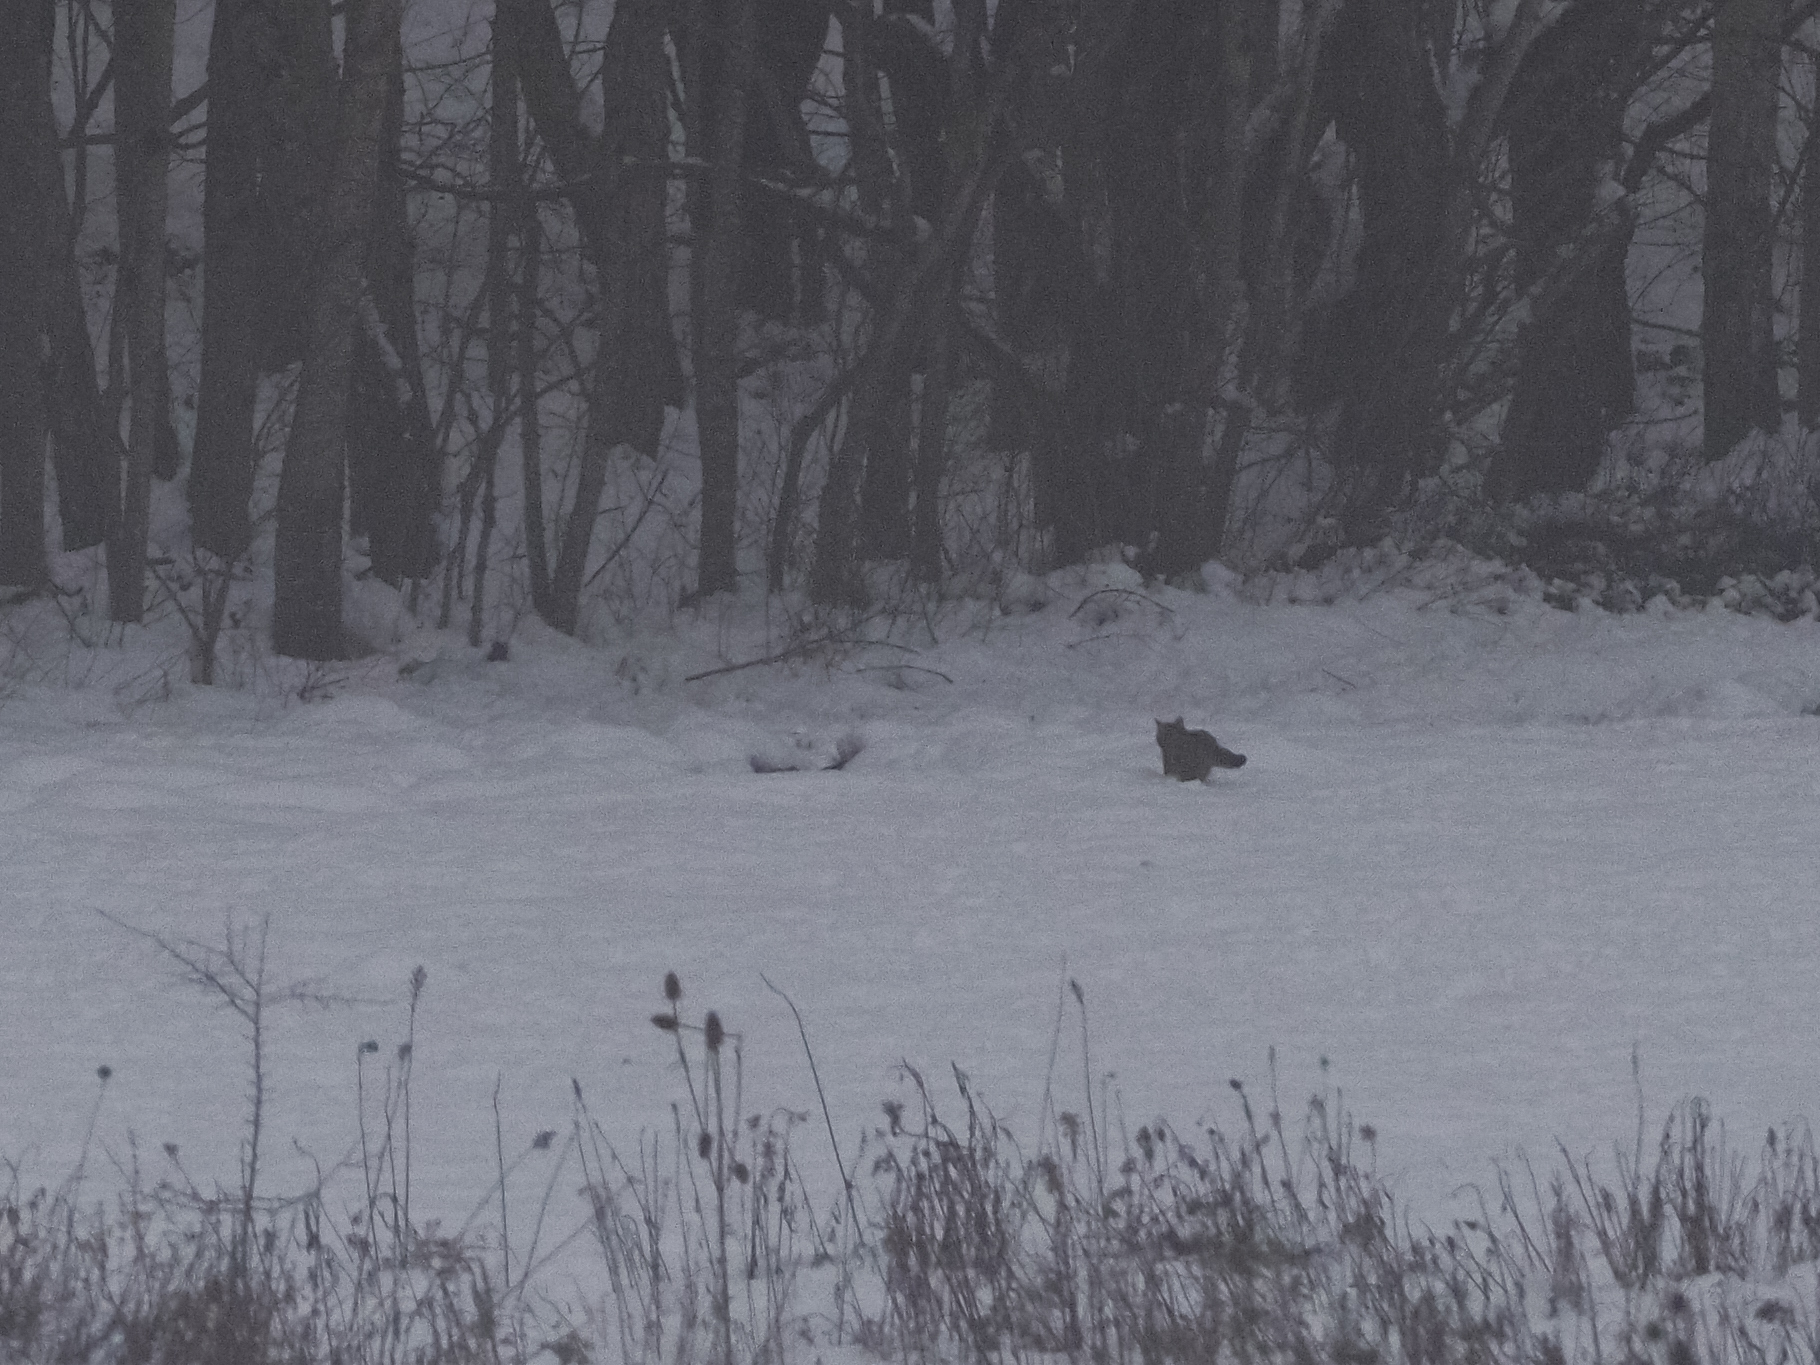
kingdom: Animalia
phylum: Chordata
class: Mammalia
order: Carnivora
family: Felidae
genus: Felis
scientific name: Felis silvestris
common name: Wildcat
